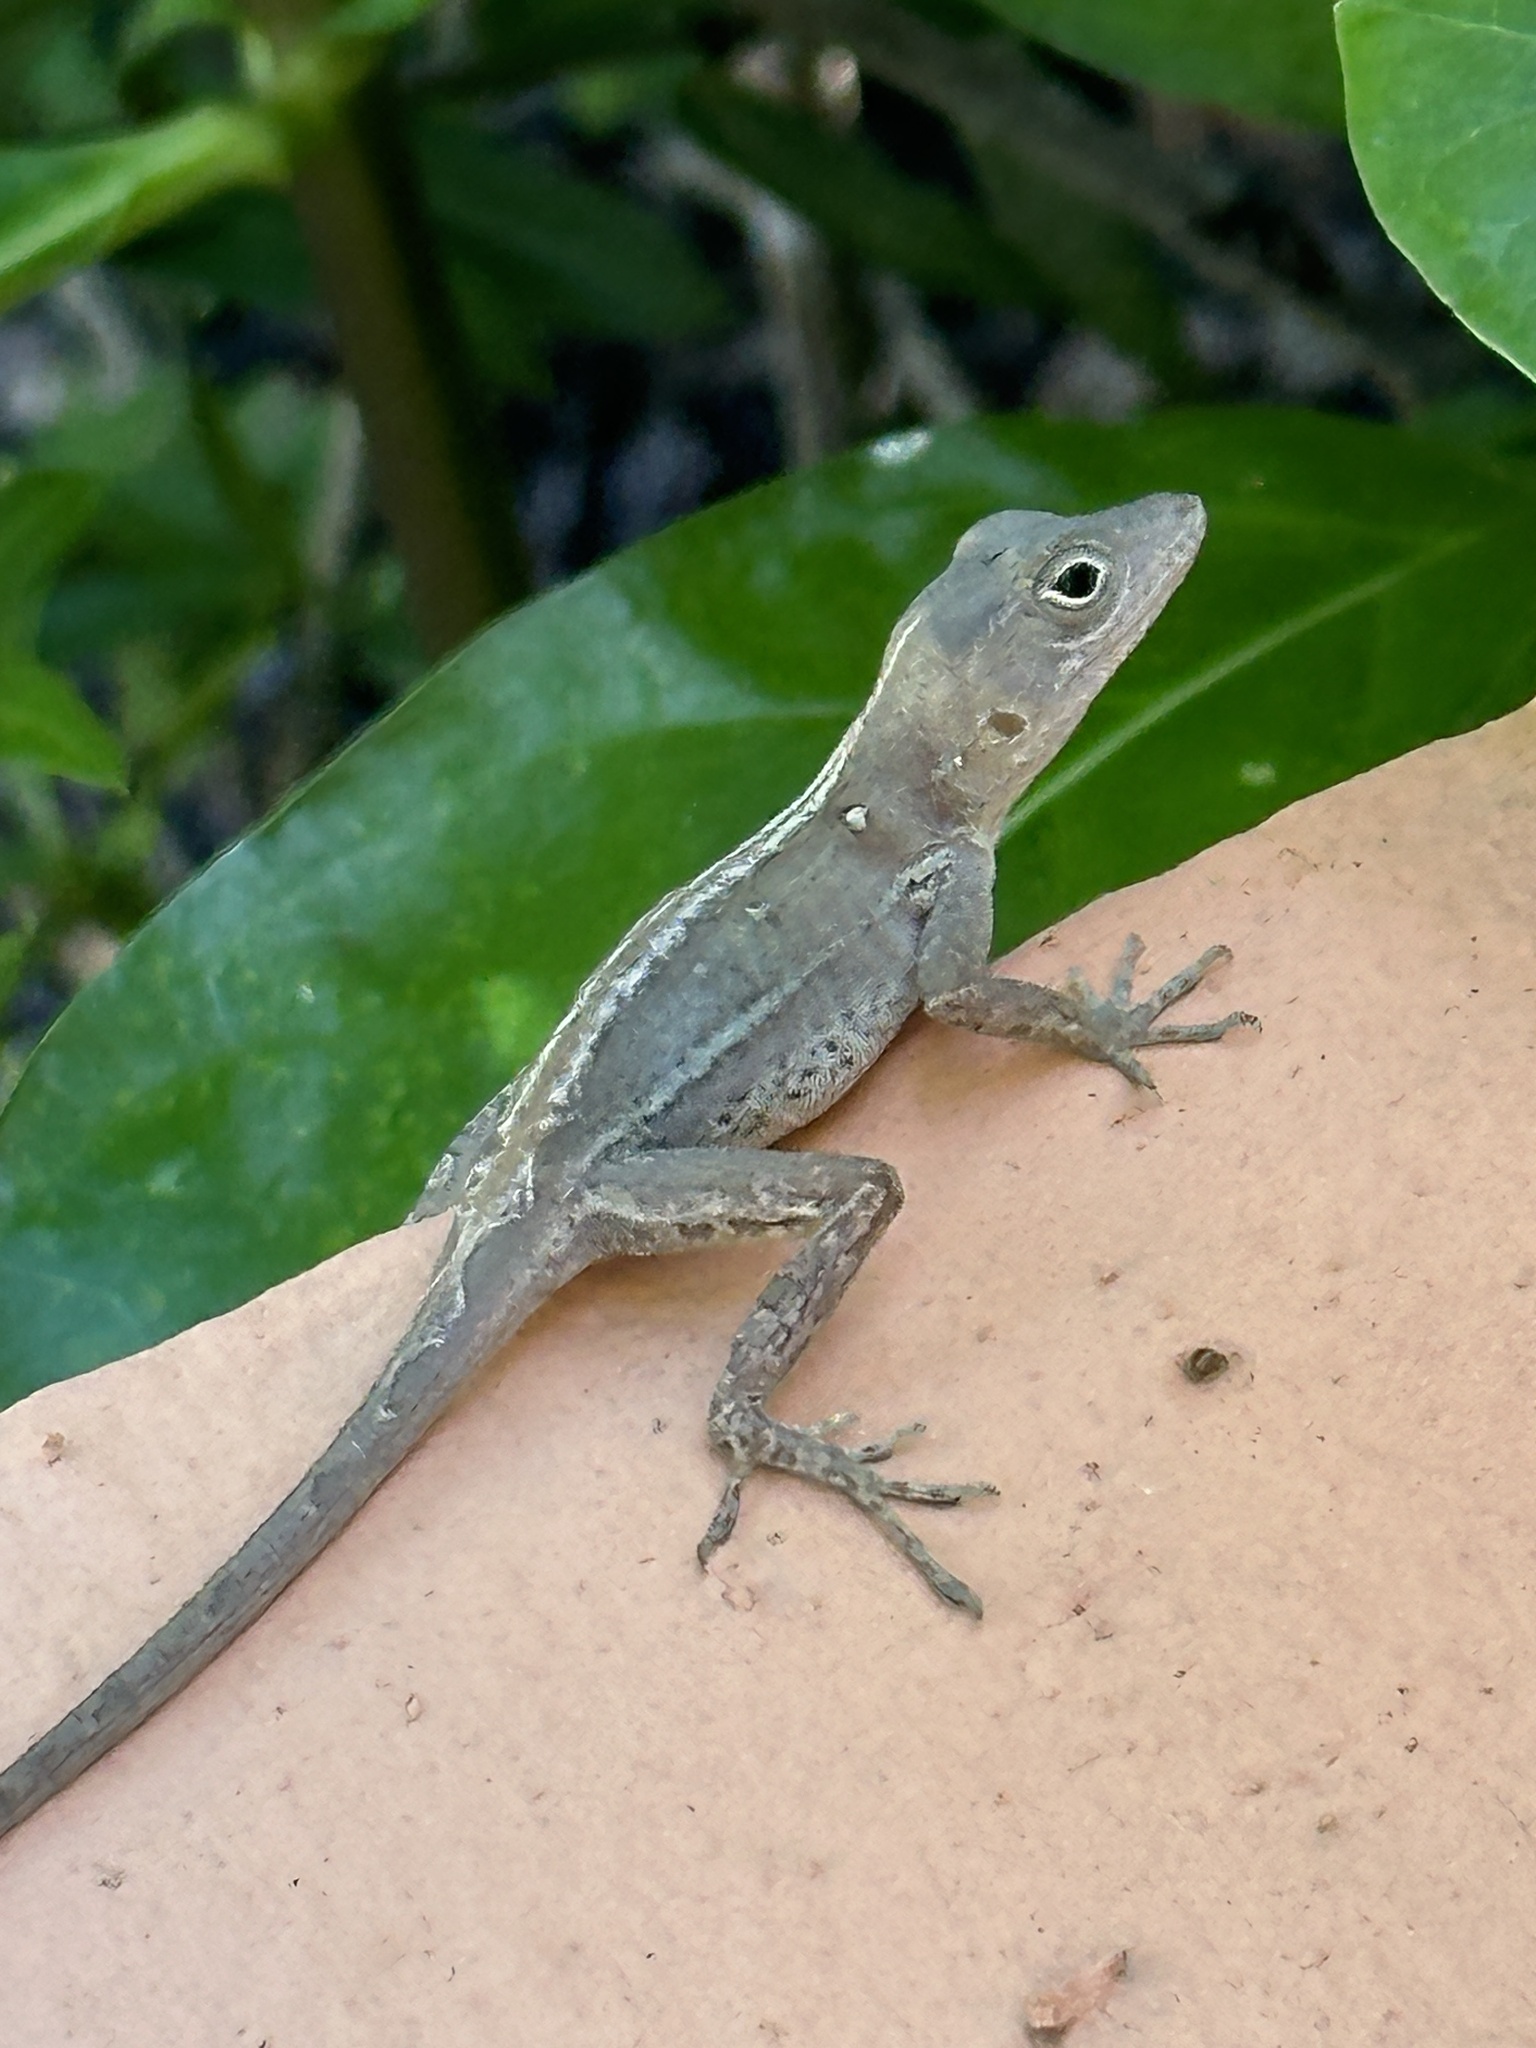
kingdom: Animalia
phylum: Chordata
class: Squamata
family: Dactyloidae
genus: Anolis
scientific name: Anolis hispaniolae
